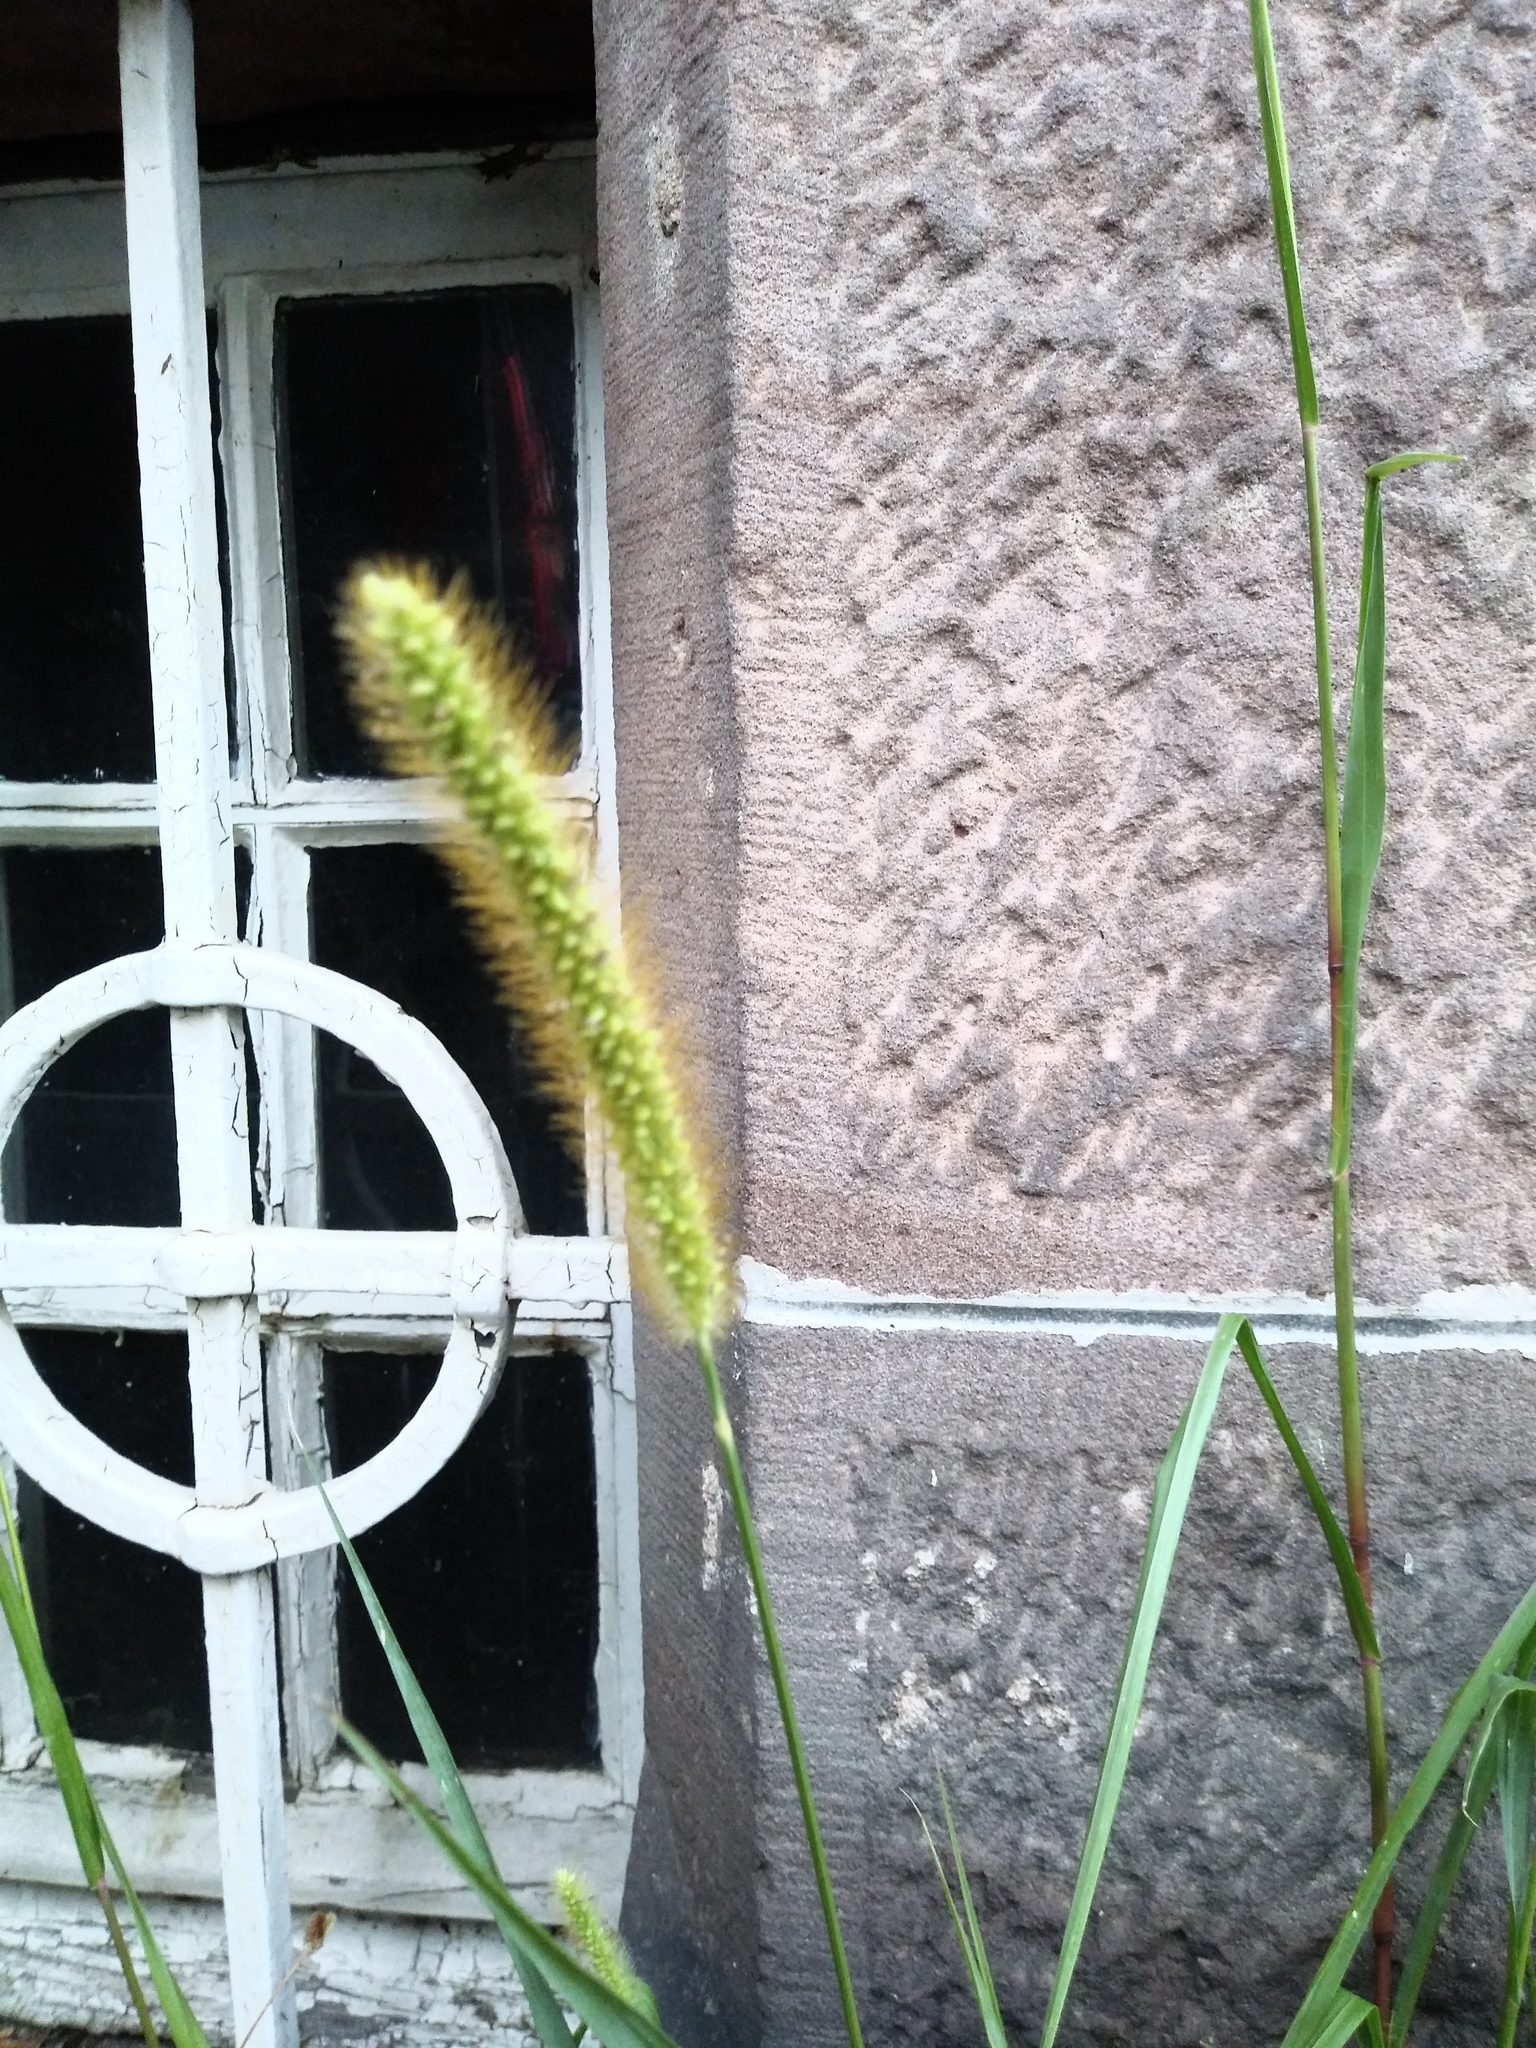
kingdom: Plantae
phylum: Tracheophyta
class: Liliopsida
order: Poales
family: Poaceae
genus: Setaria
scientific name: Setaria pumila
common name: Yellow bristle-grass
